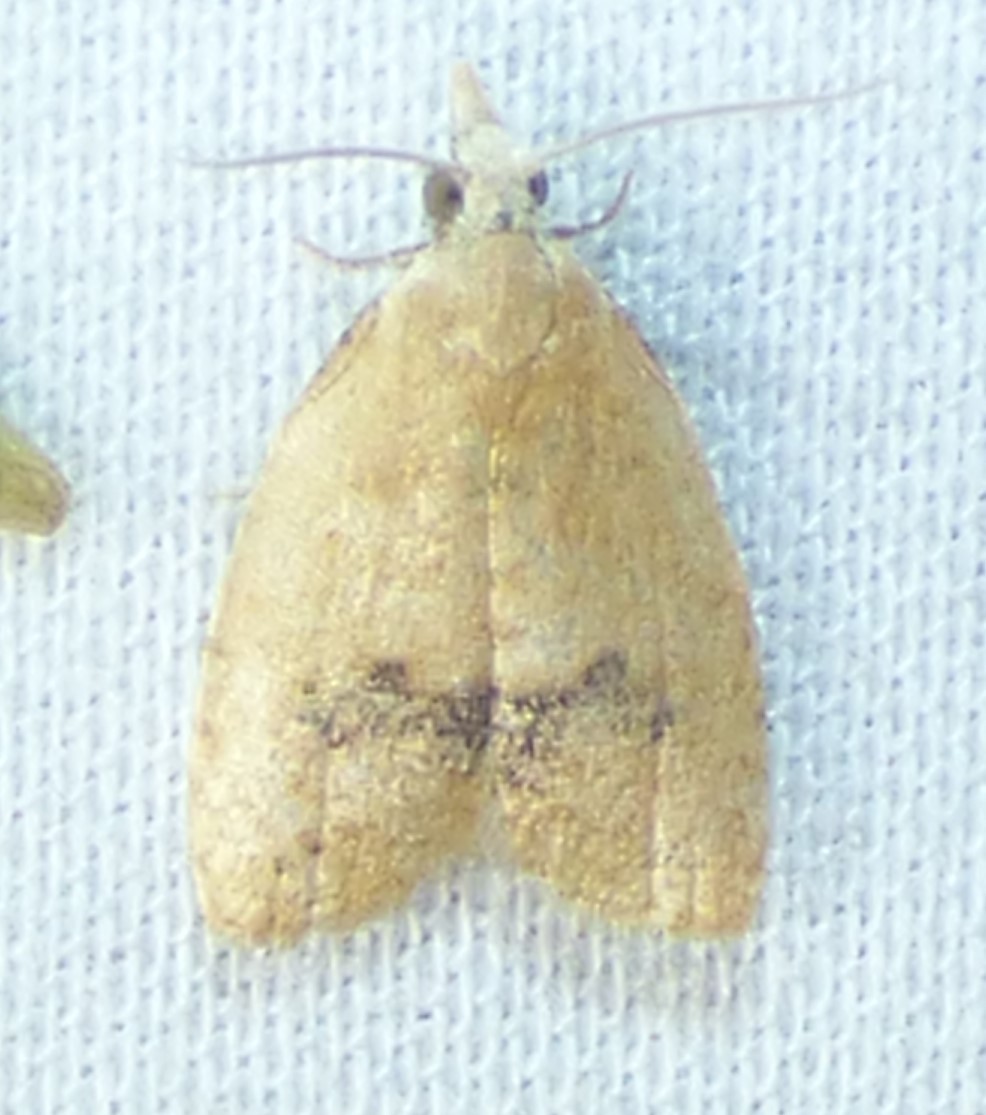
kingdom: Animalia
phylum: Arthropoda
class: Insecta
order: Lepidoptera
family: Tortricidae
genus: Sparganothoides
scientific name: Sparganothoides lentiginosana
